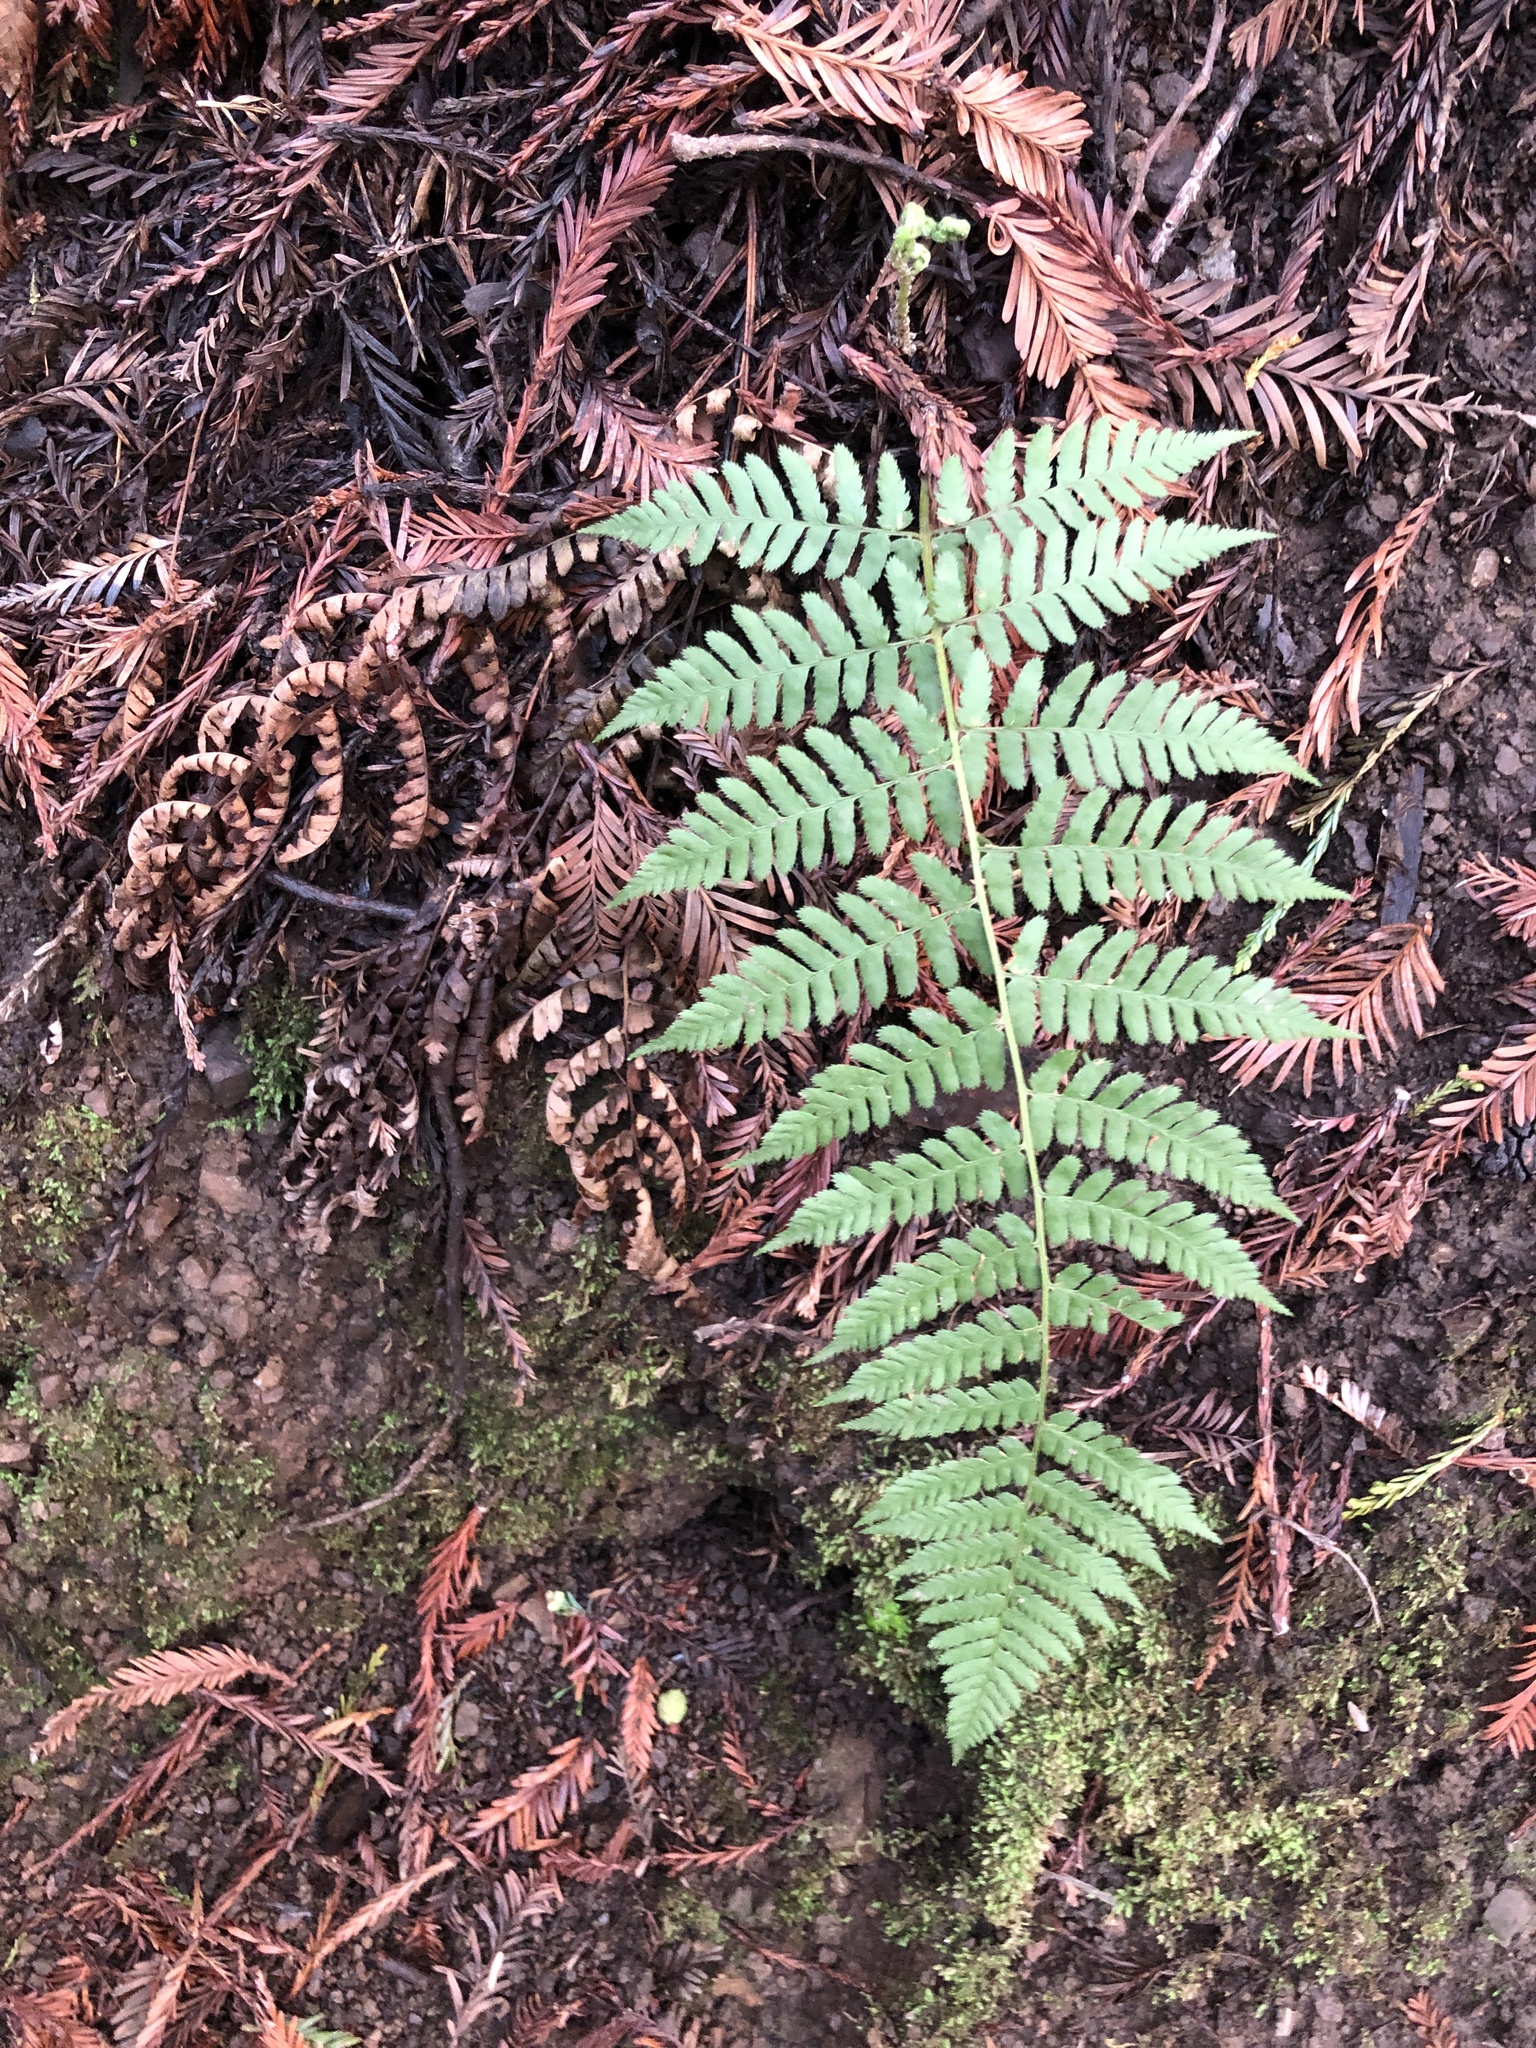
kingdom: Plantae
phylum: Tracheophyta
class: Polypodiopsida
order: Polypodiales
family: Dryopteridaceae
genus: Dryopteris
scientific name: Dryopteris arguta
